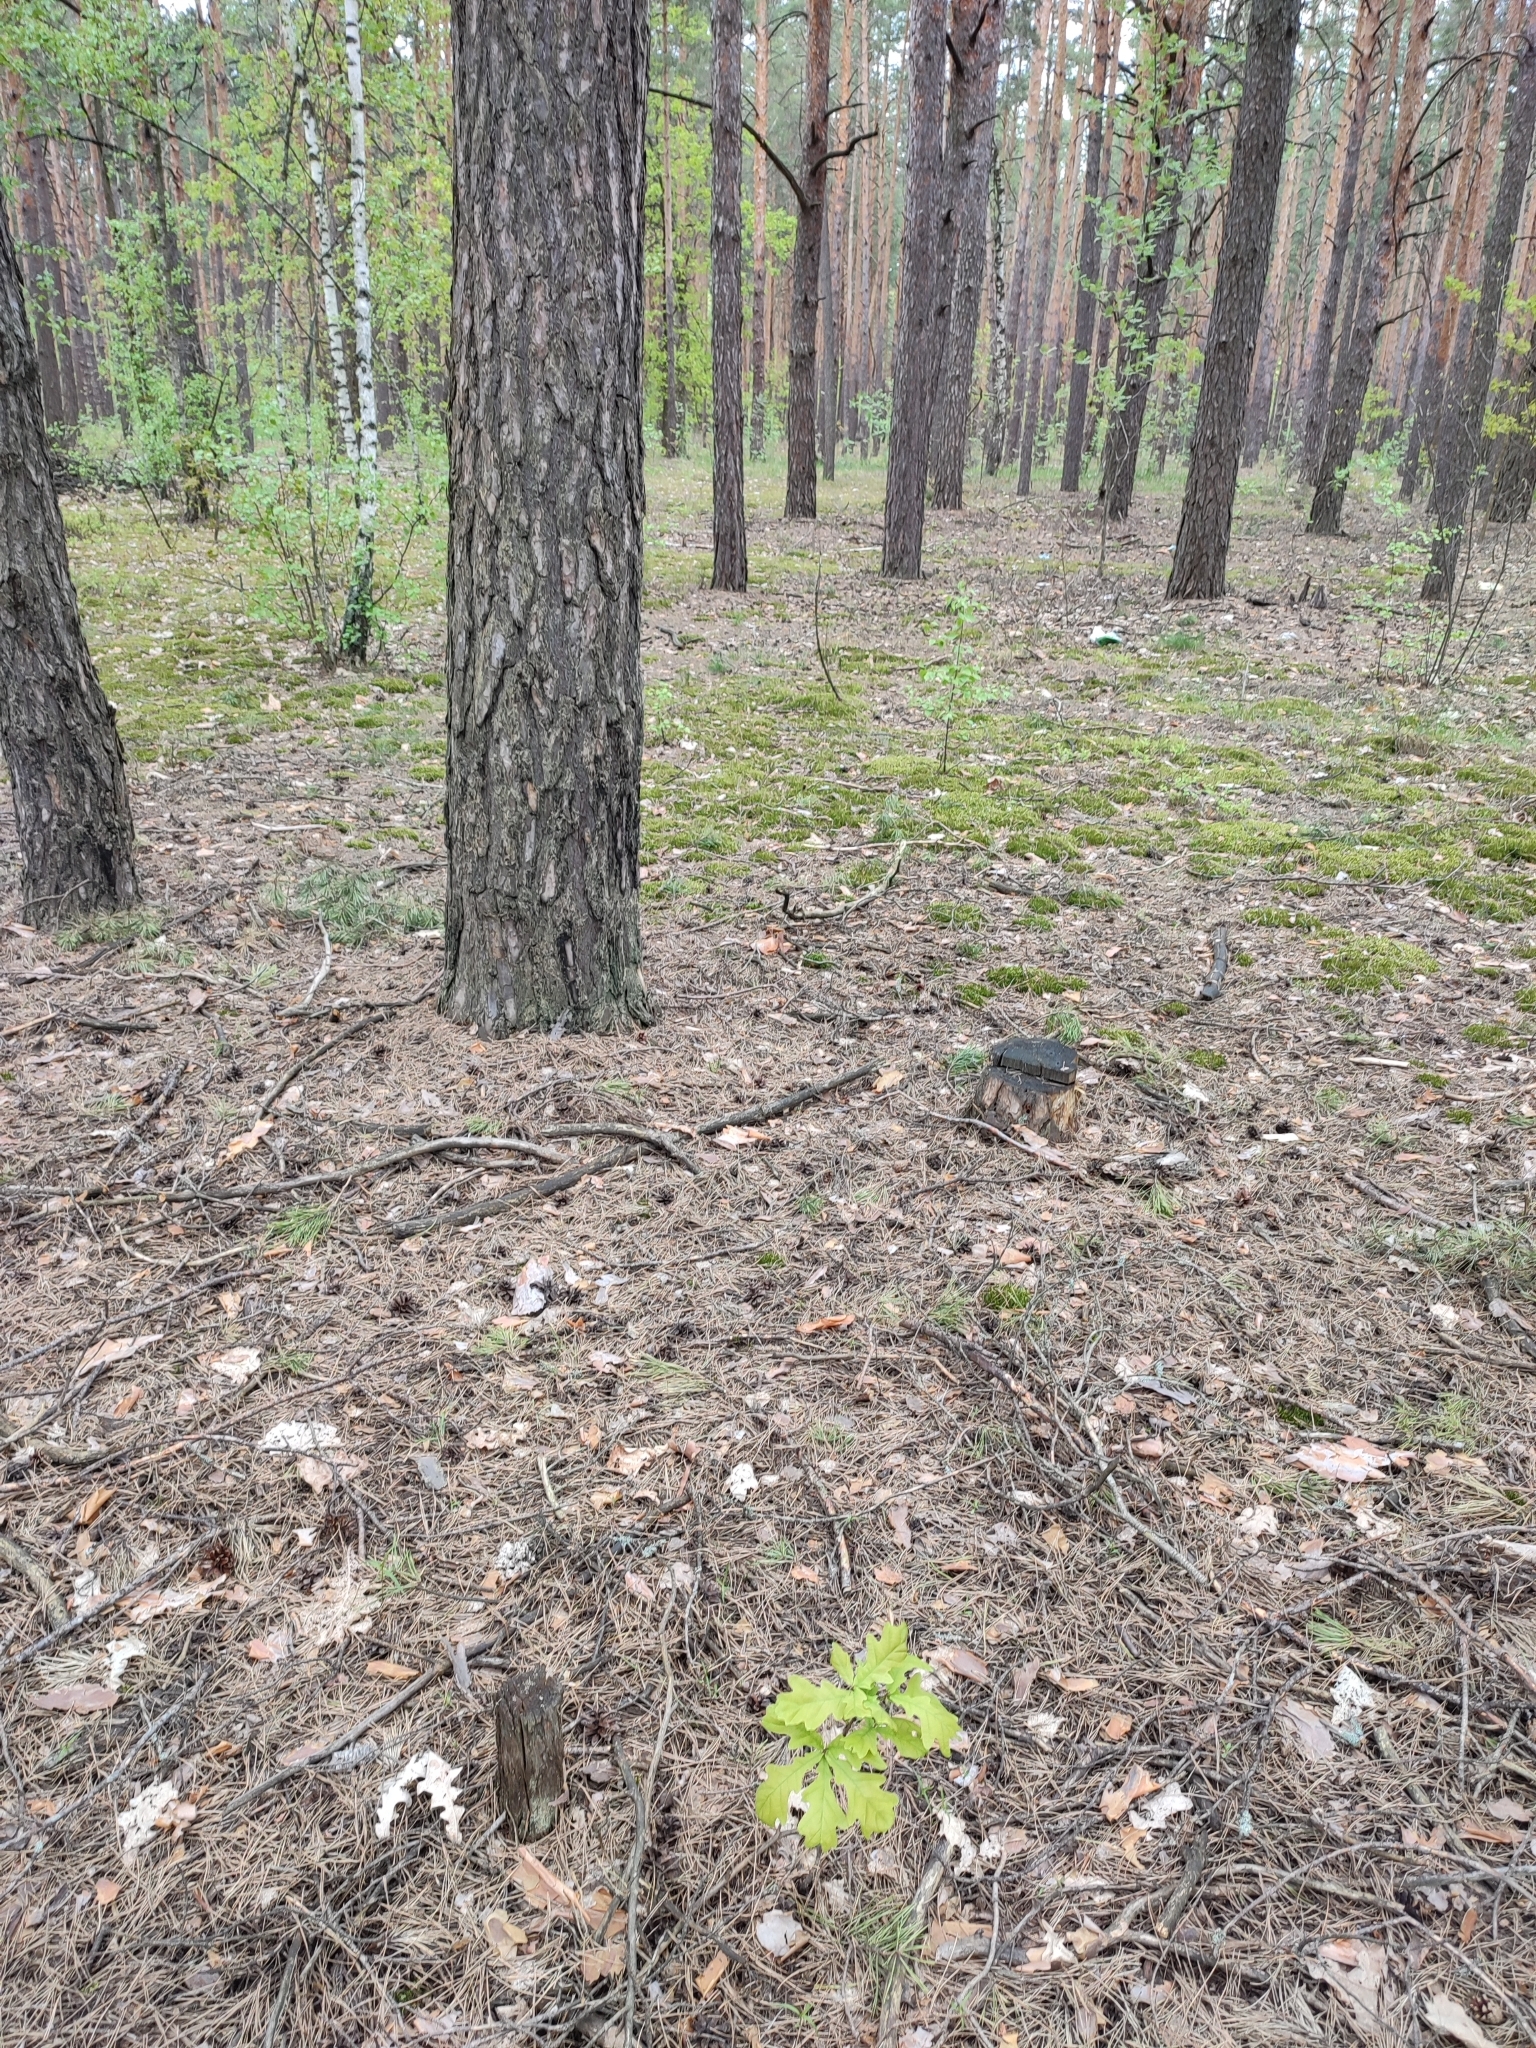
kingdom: Plantae
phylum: Tracheophyta
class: Magnoliopsida
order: Fagales
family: Fagaceae
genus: Quercus
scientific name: Quercus robur
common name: Pedunculate oak
